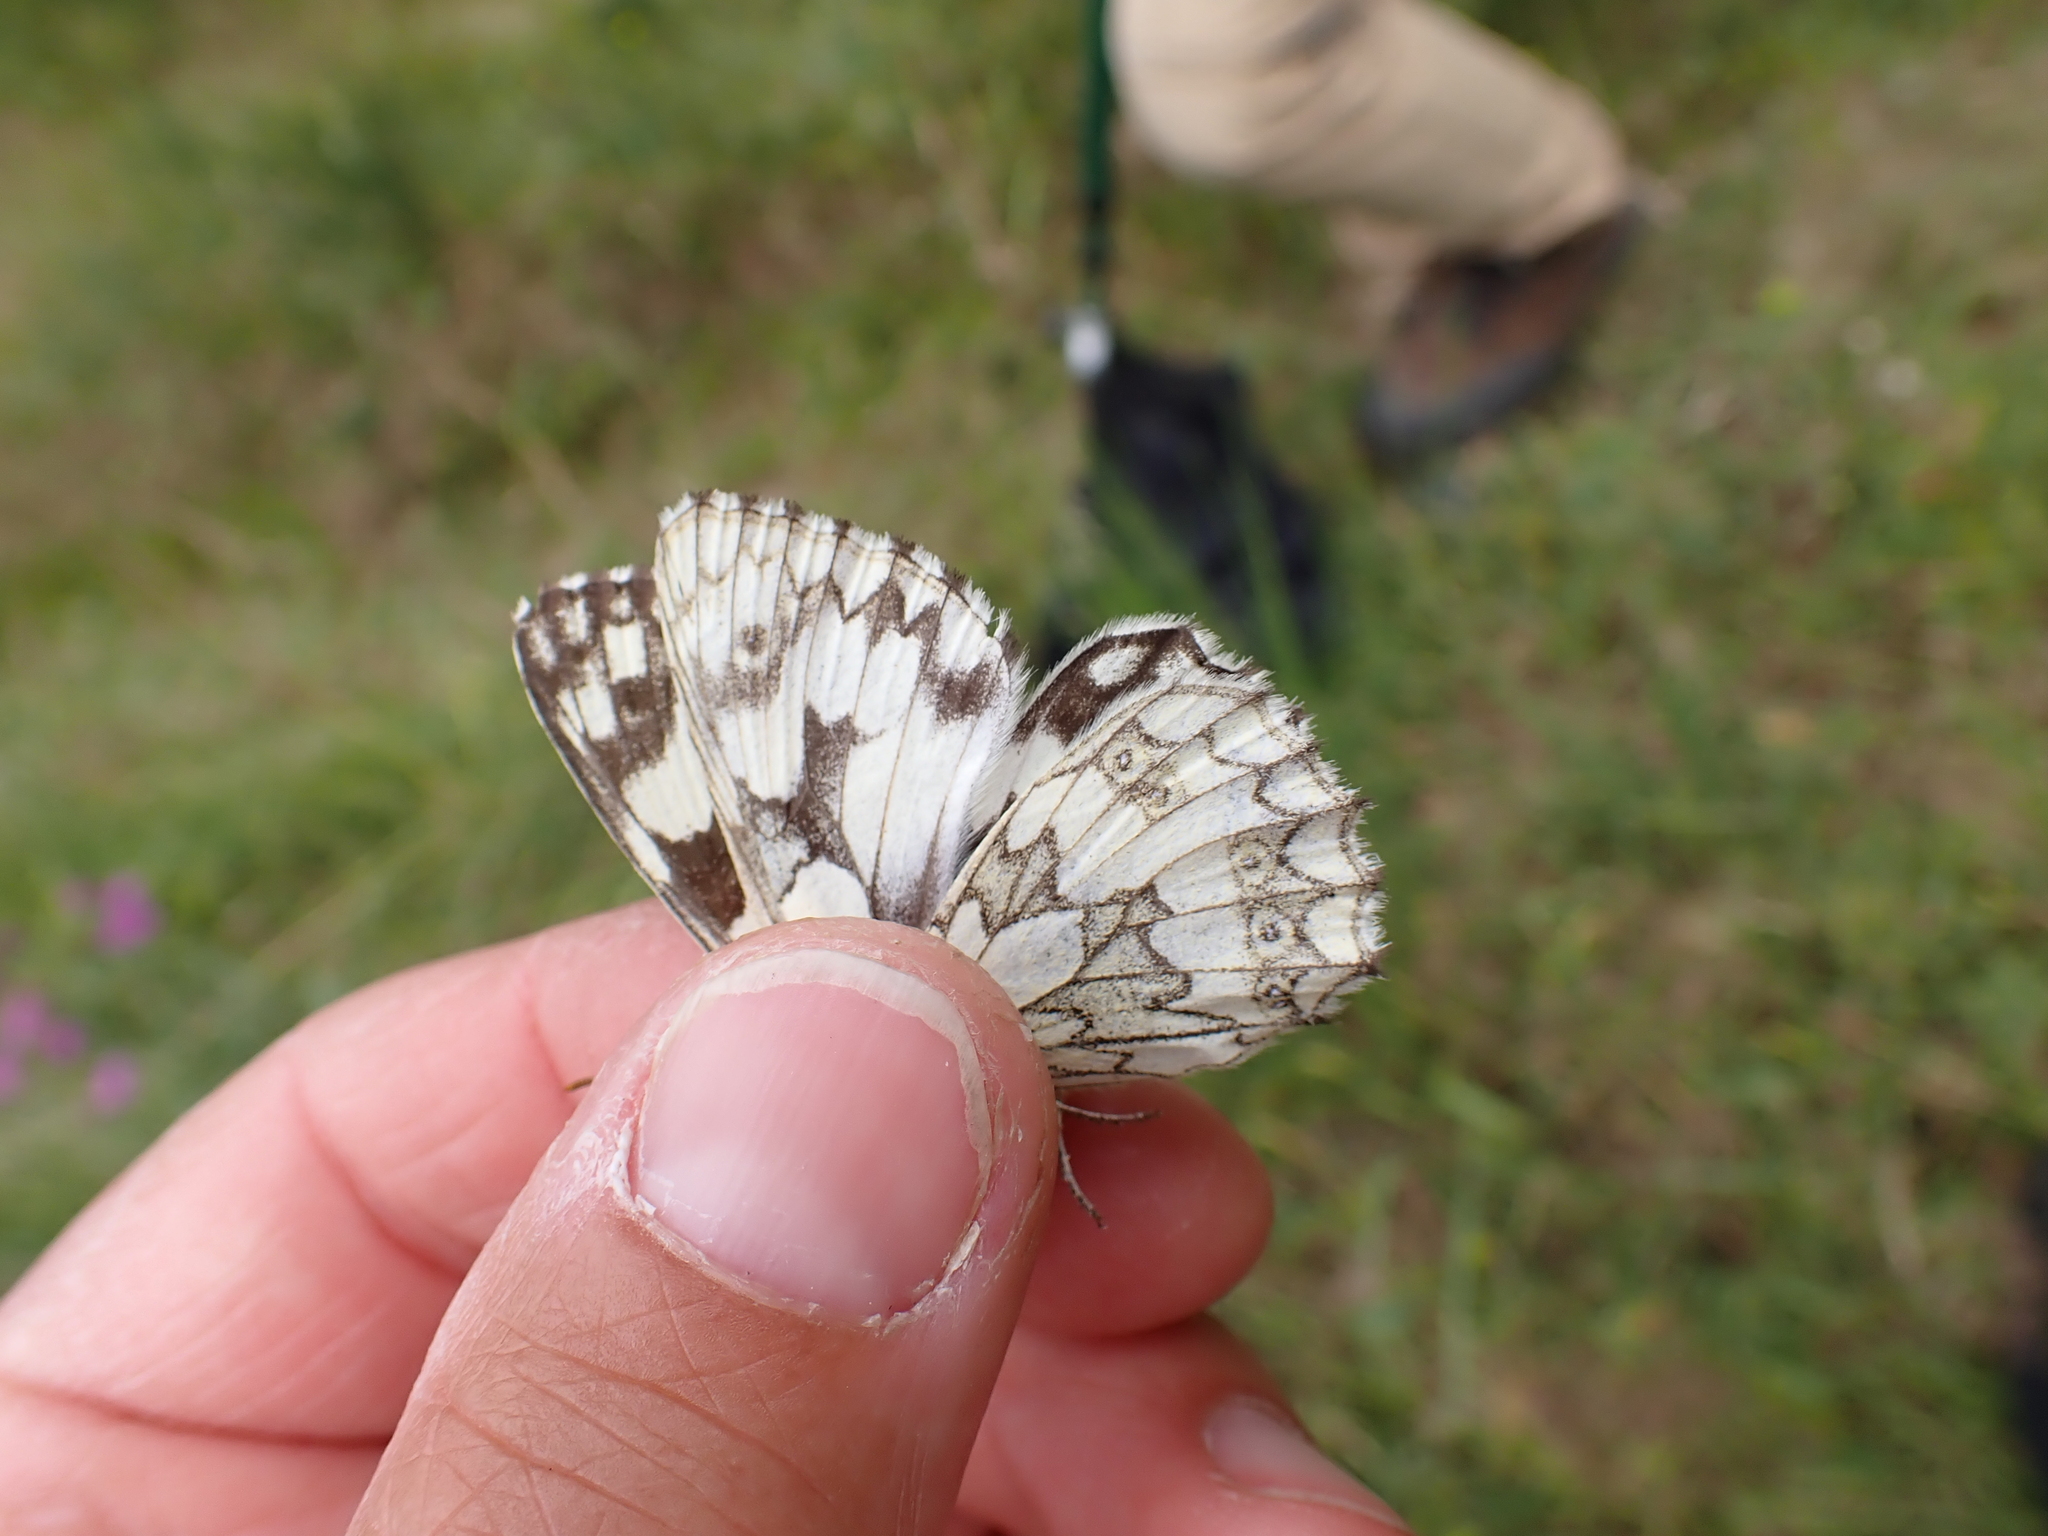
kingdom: Animalia
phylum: Arthropoda
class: Insecta
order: Lepidoptera
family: Nymphalidae
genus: Melanargia
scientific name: Melanargia galathea
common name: Marbled white
